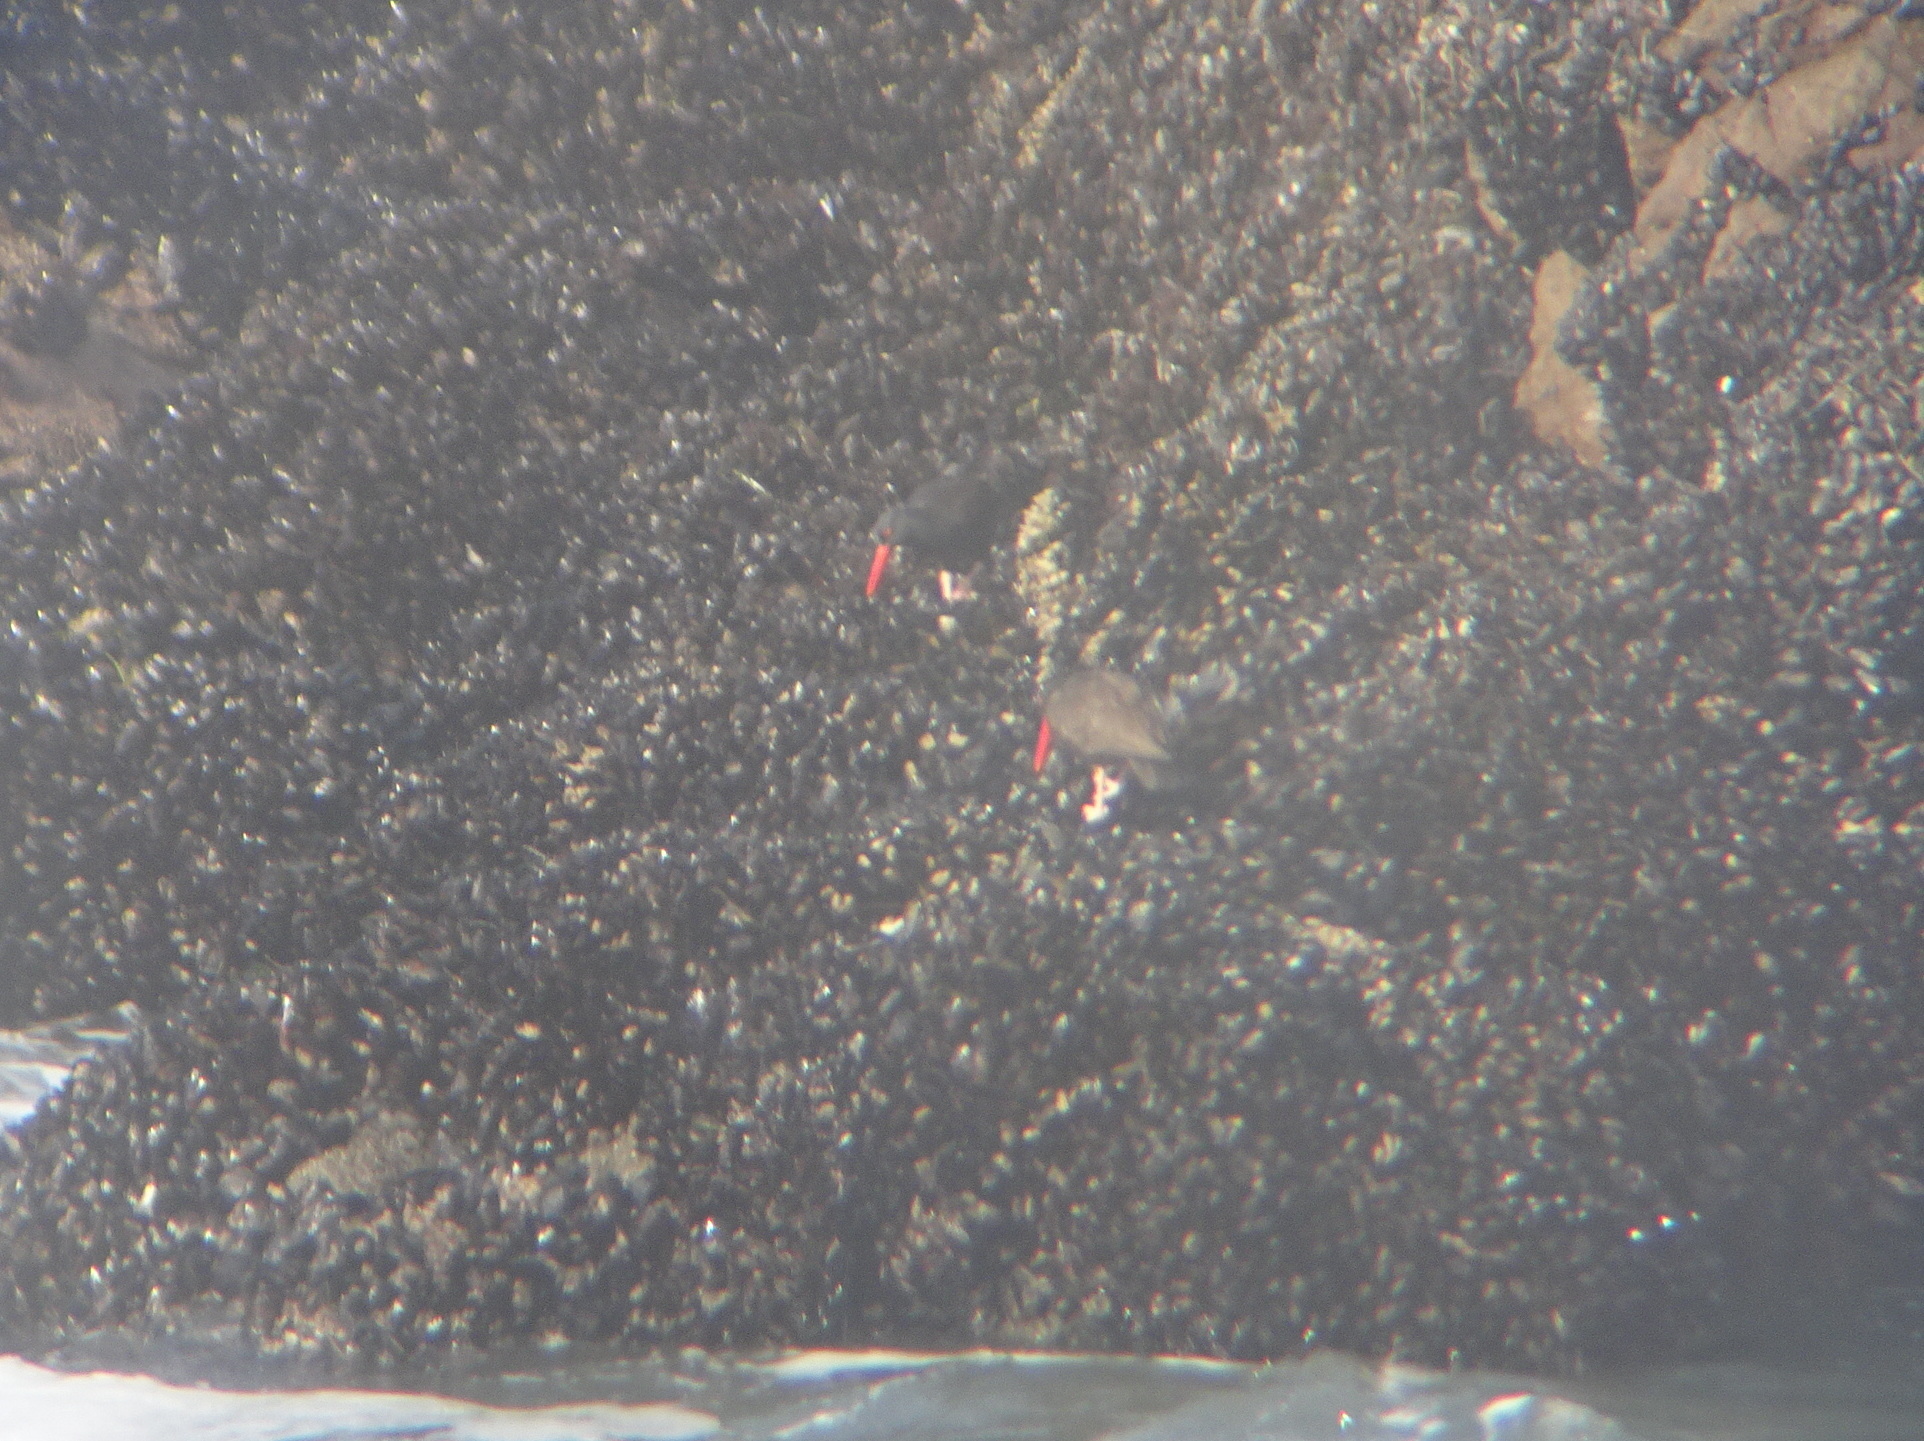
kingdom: Animalia
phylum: Chordata
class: Aves
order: Charadriiformes
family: Haematopodidae
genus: Haematopus
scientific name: Haematopus bachmani
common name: Black oystercatcher
